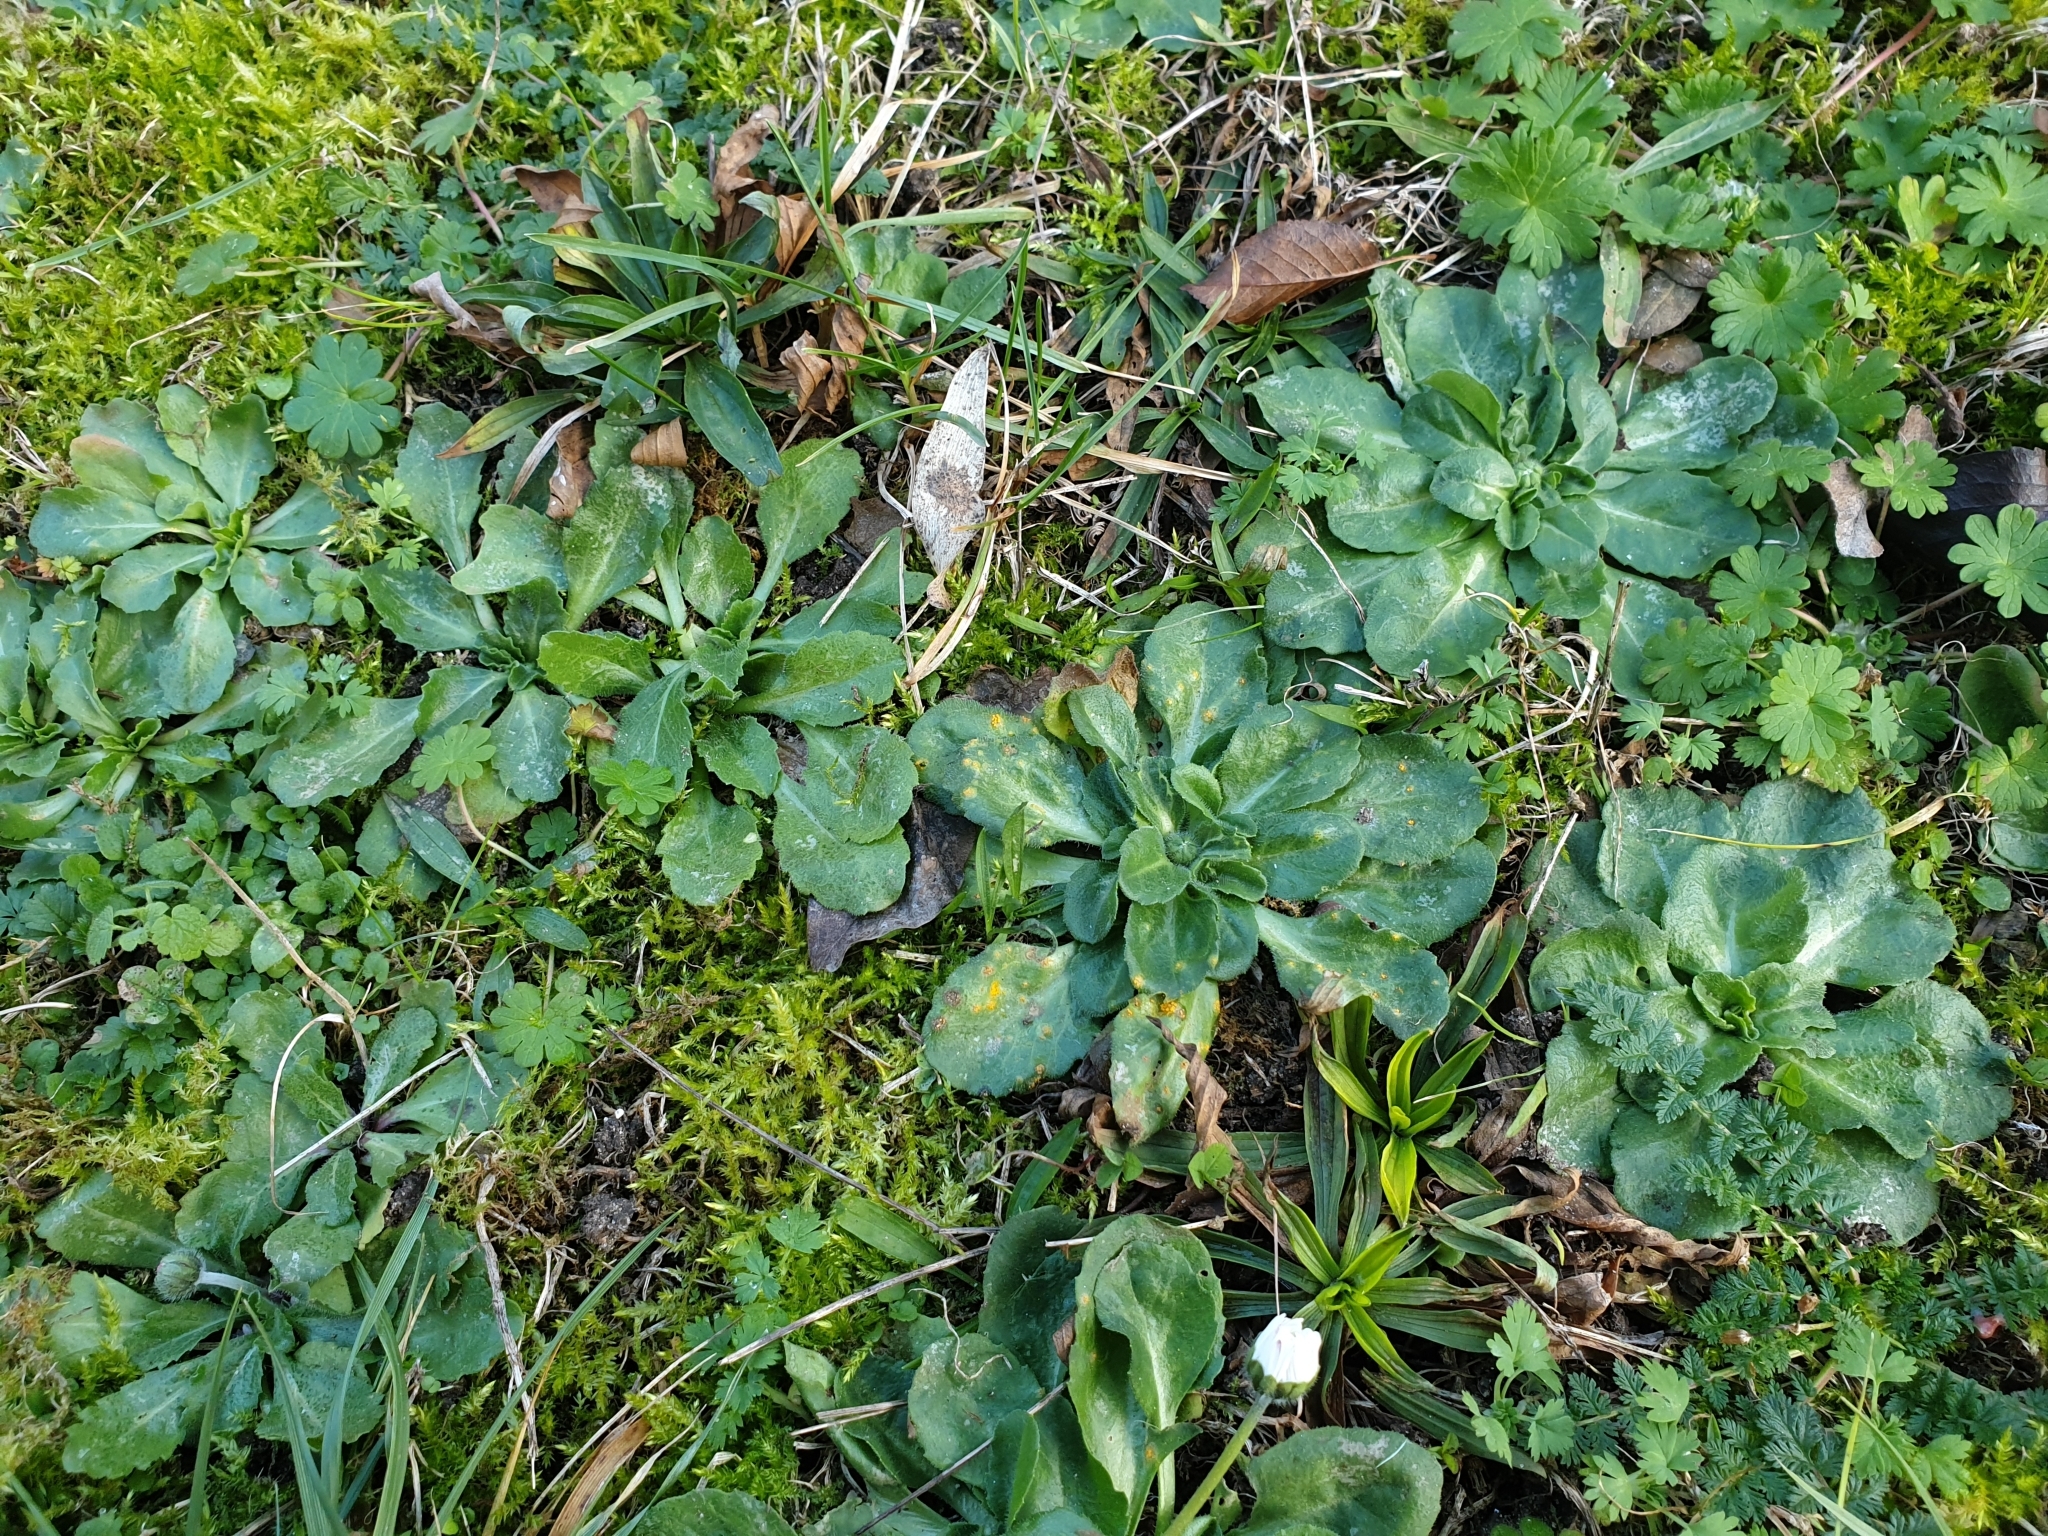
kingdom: Plantae
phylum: Tracheophyta
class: Magnoliopsida
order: Asterales
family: Asteraceae
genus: Bellis
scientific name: Bellis perennis
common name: Lawndaisy
